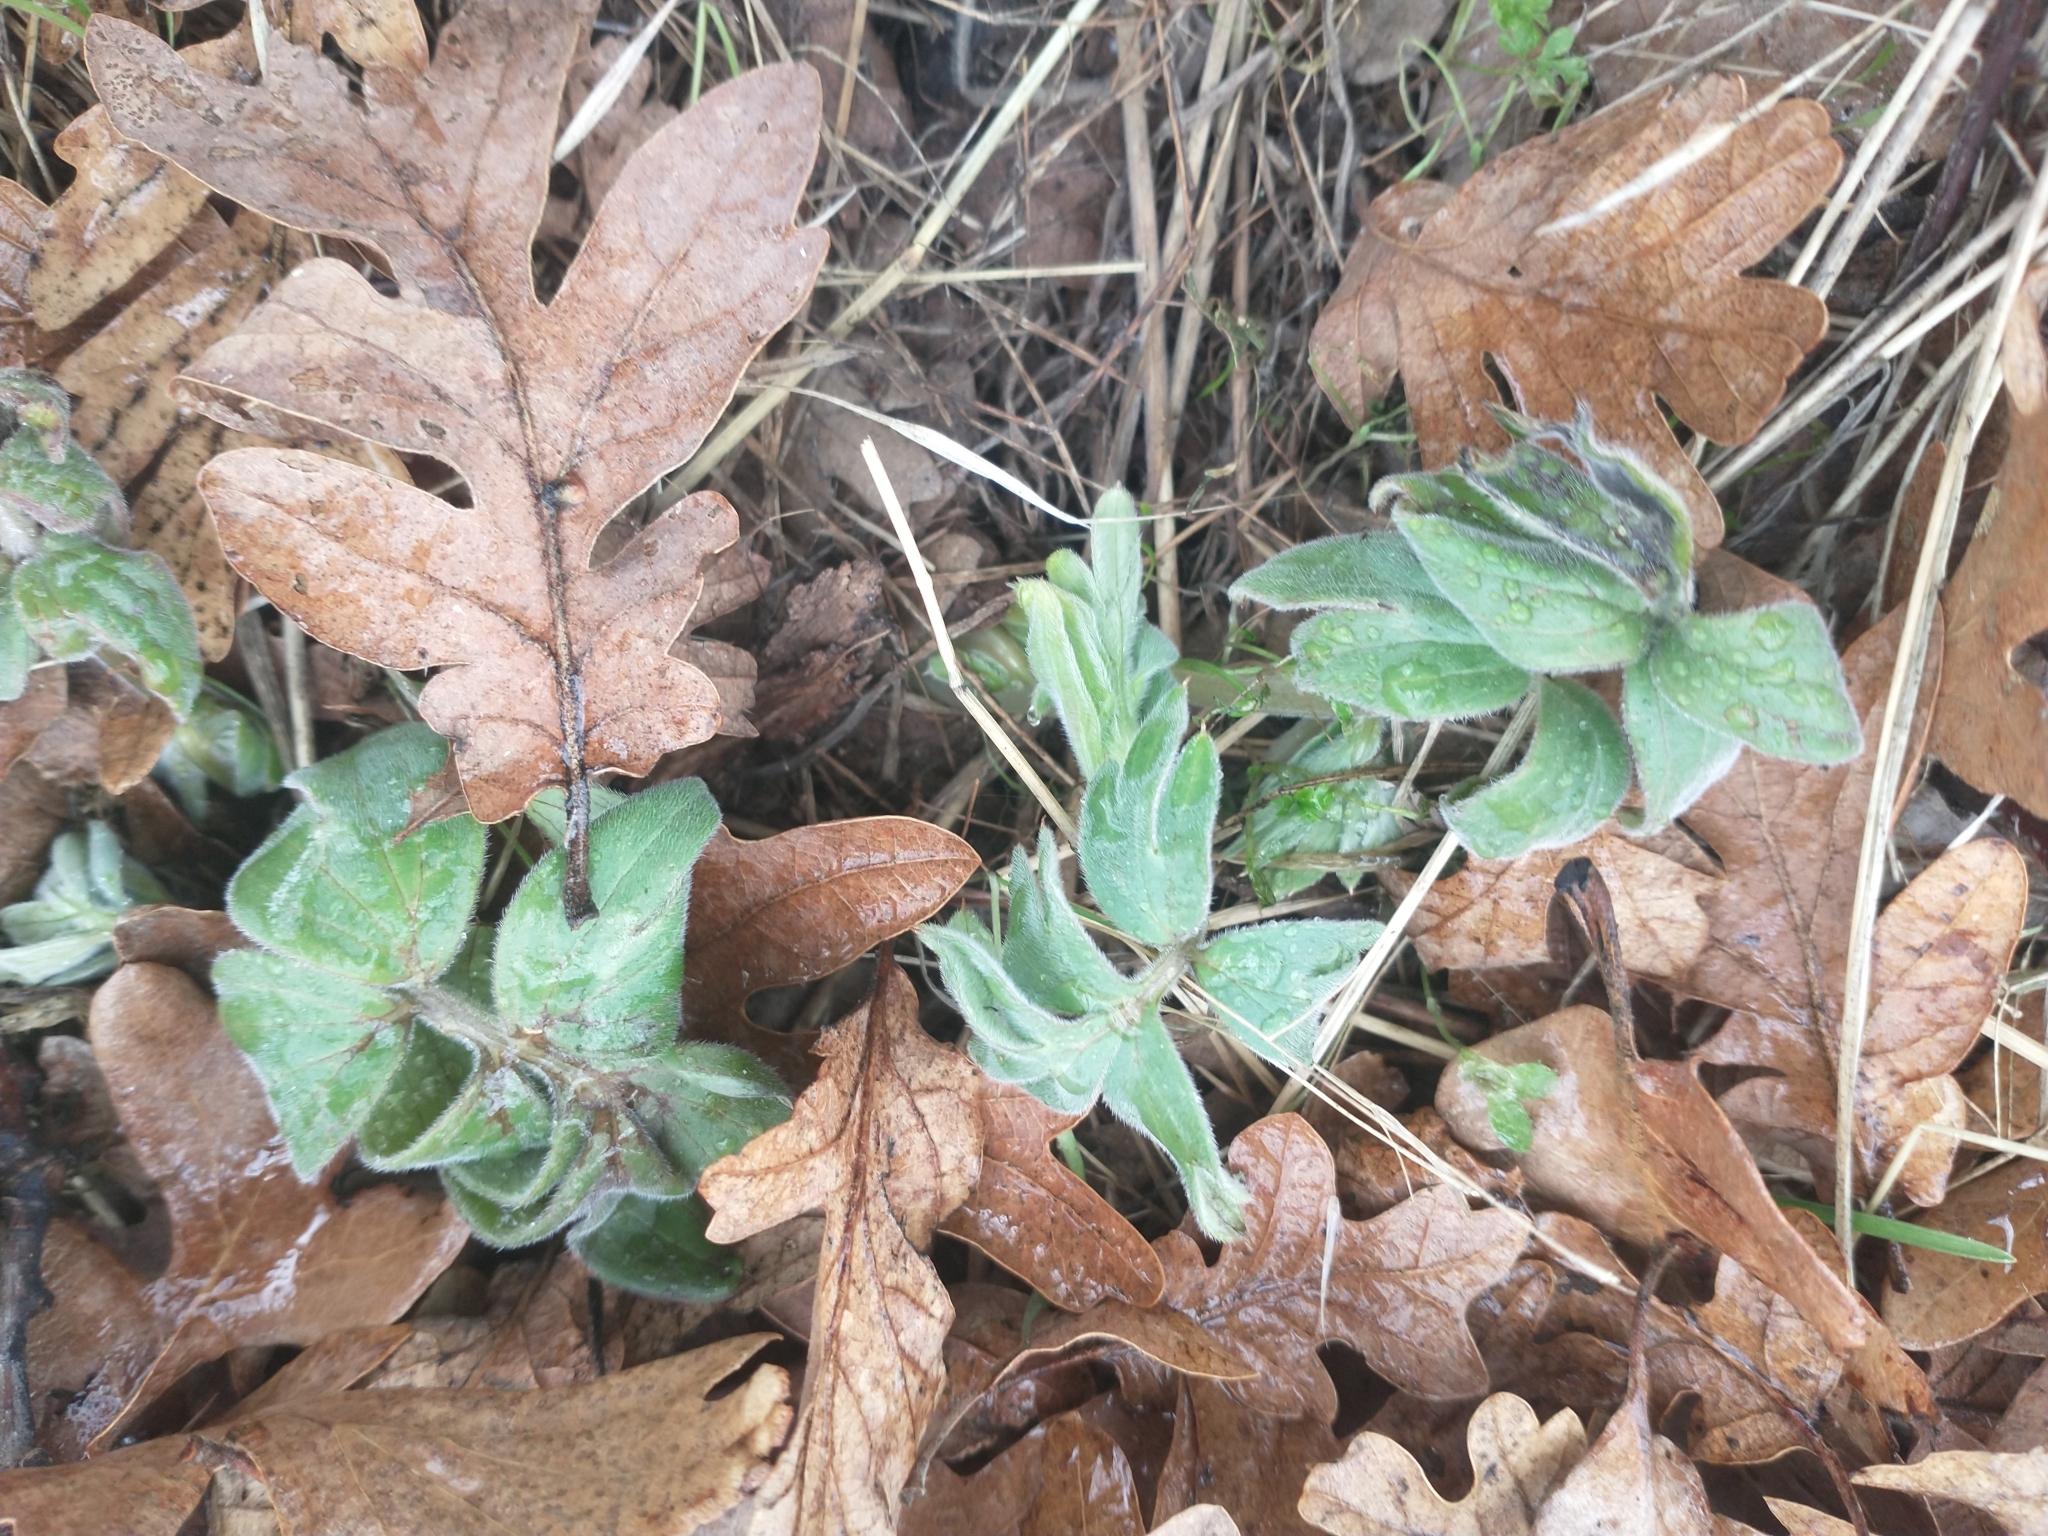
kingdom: Plantae
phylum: Tracheophyta
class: Magnoliopsida
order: Boraginales
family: Hydrophyllaceae
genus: Hydrophyllum
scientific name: Hydrophyllum capitatum
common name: Woollen-breeches
